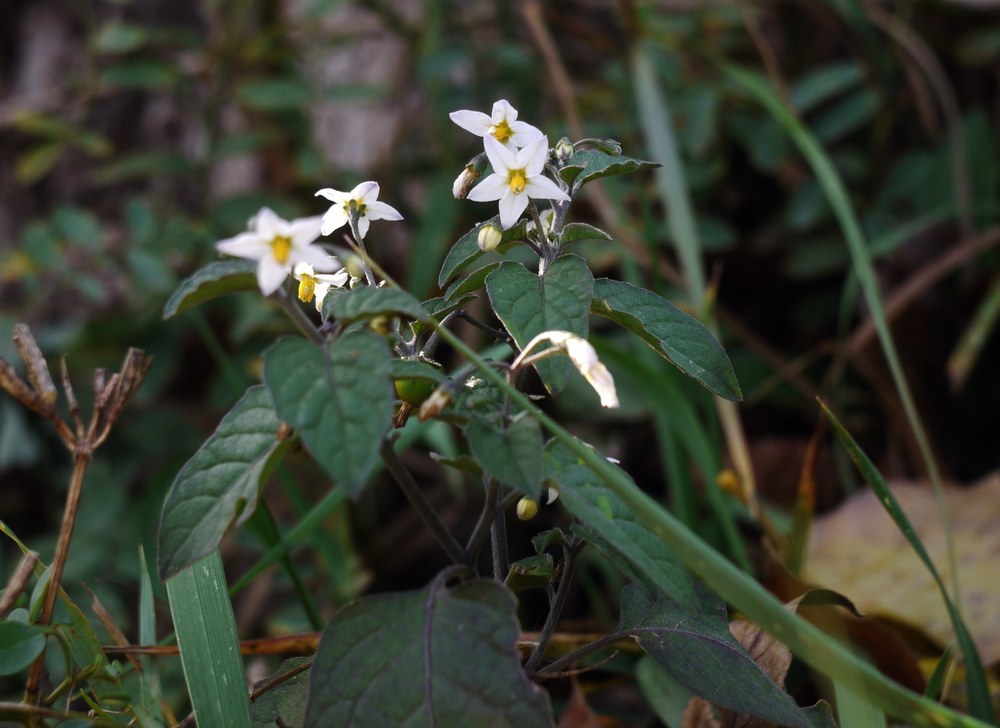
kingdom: Plantae
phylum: Tracheophyta
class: Magnoliopsida
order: Solanales
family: Solanaceae
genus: Solanum
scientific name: Solanum nigrum
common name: Black nightshade
